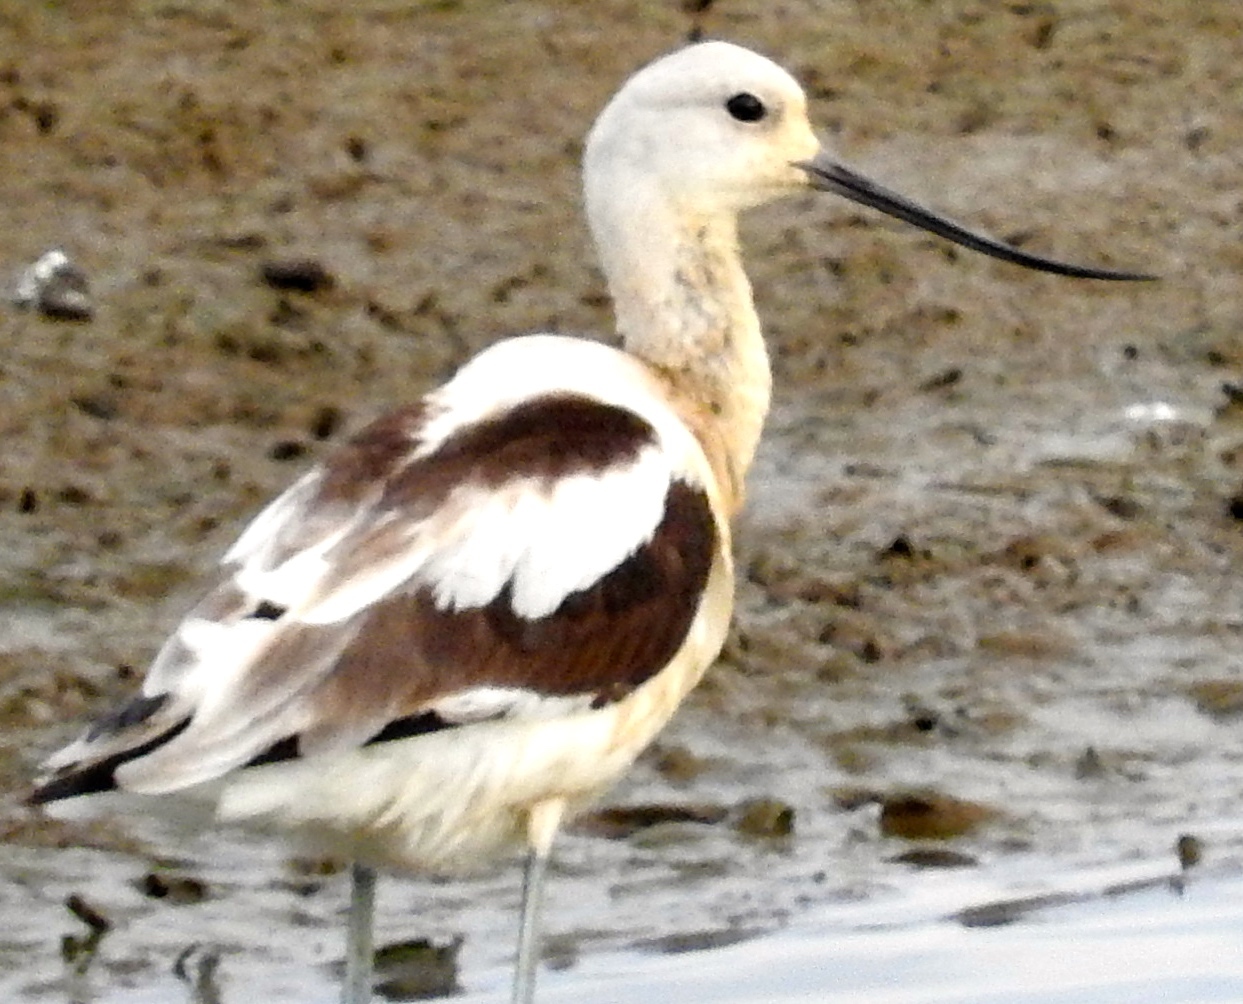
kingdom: Animalia
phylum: Chordata
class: Aves
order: Charadriiformes
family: Recurvirostridae
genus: Recurvirostra
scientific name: Recurvirostra americana
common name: American avocet
